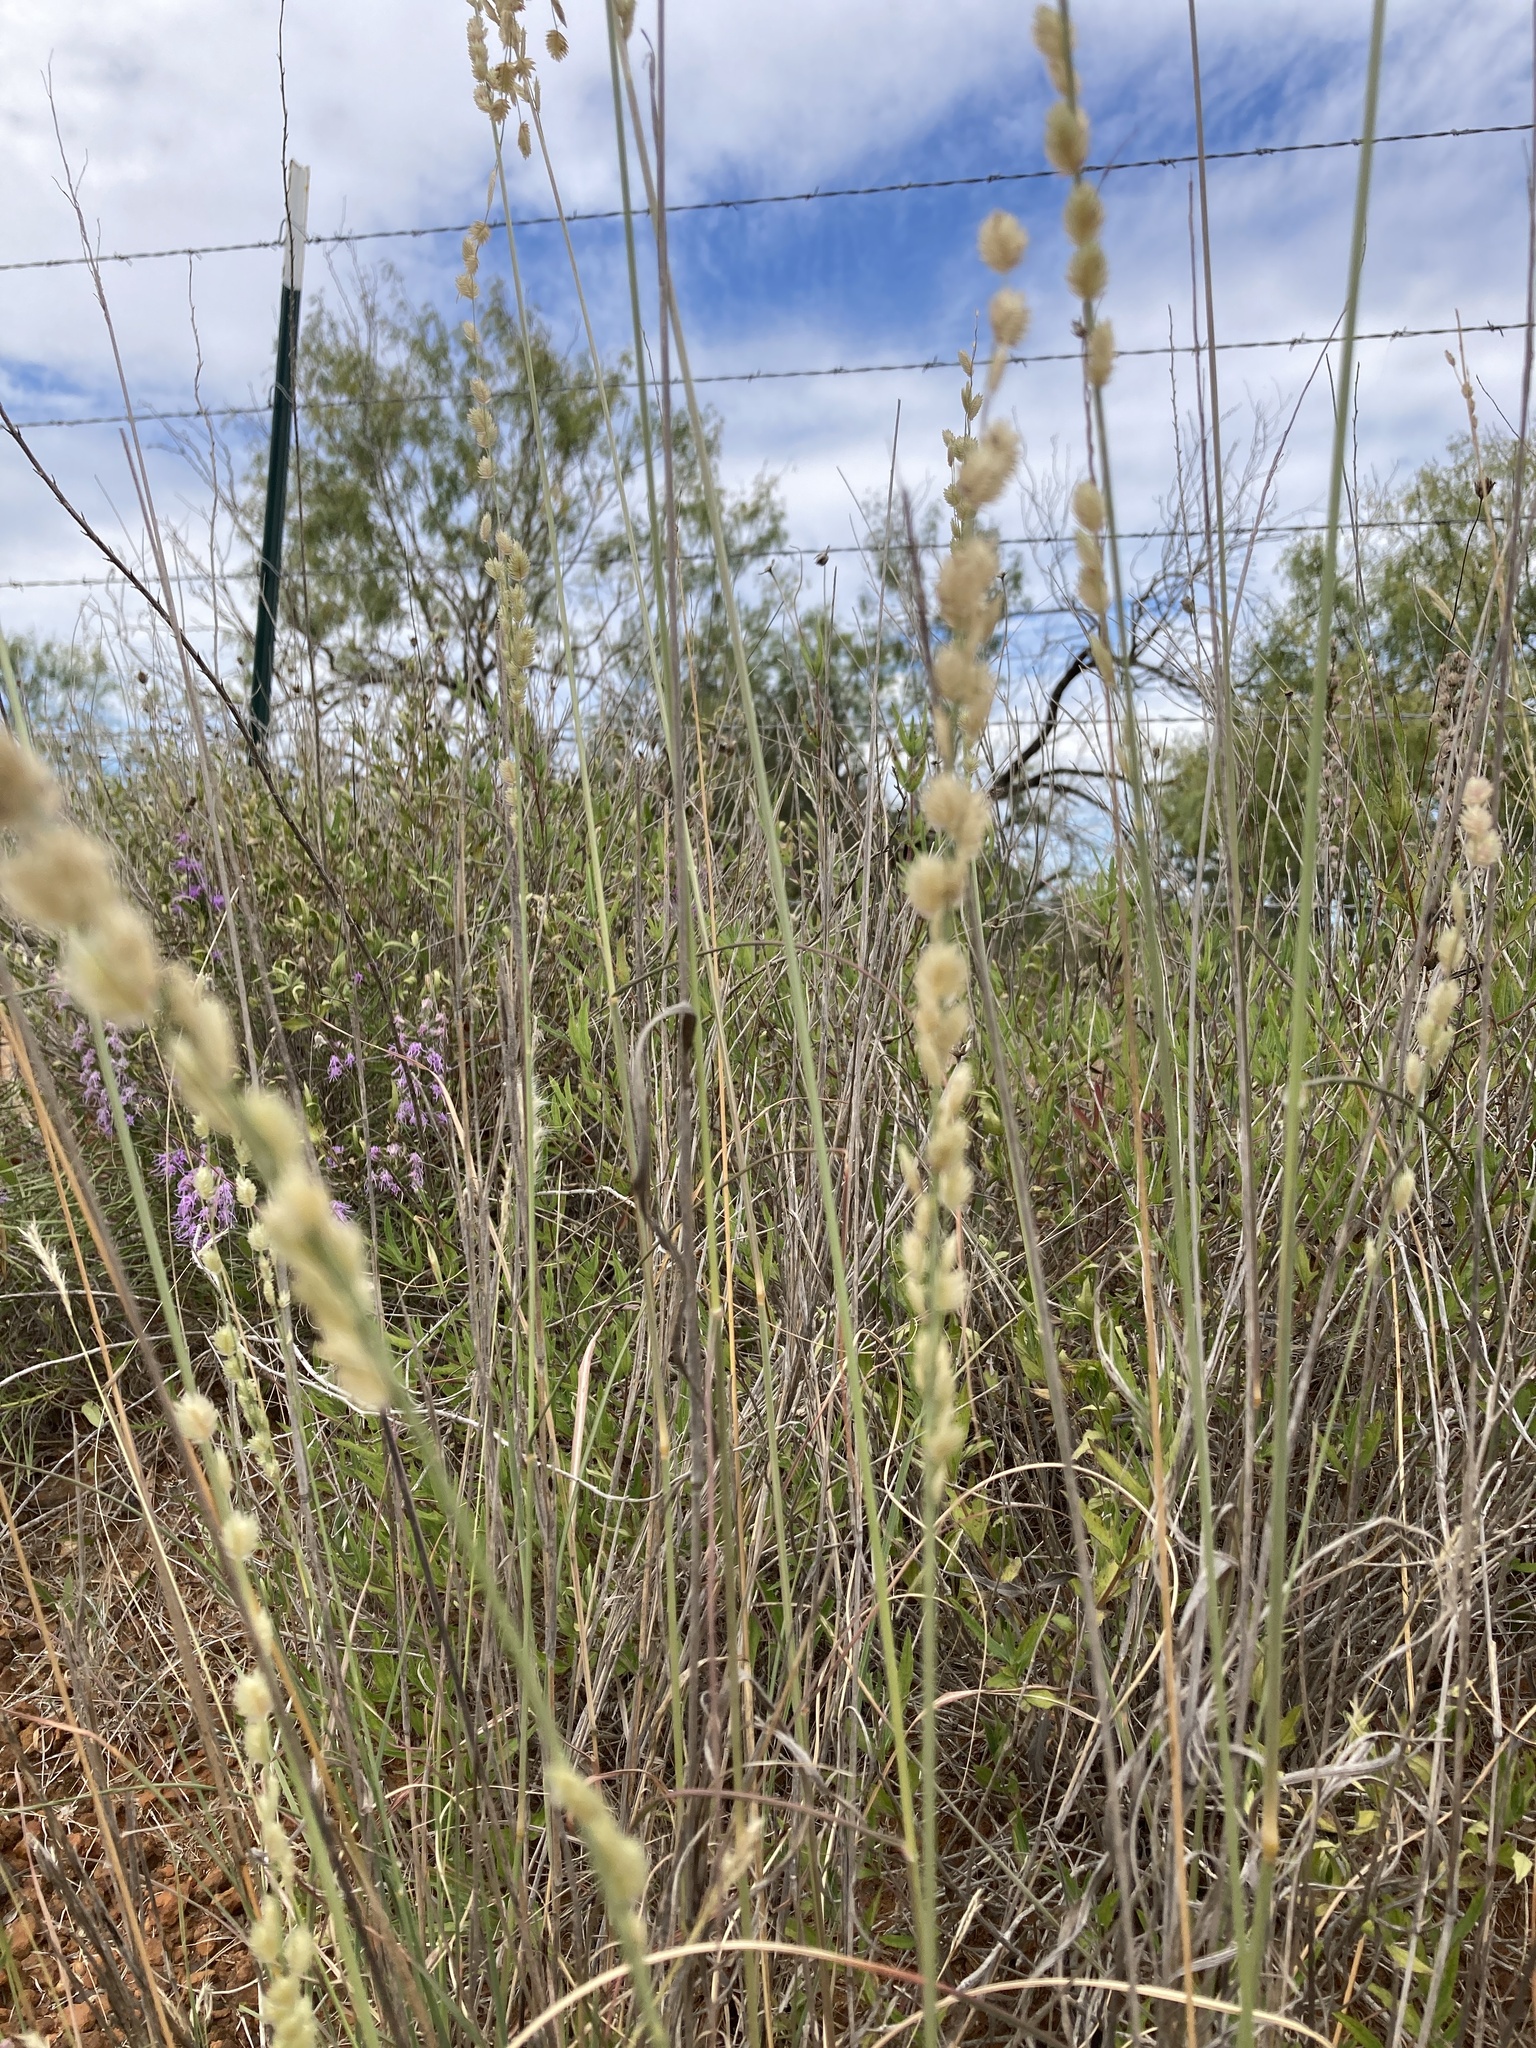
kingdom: Plantae
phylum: Tracheophyta
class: Liliopsida
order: Poales
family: Poaceae
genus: Eragrostis
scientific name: Eragrostis superba
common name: Wilman lovegrass
